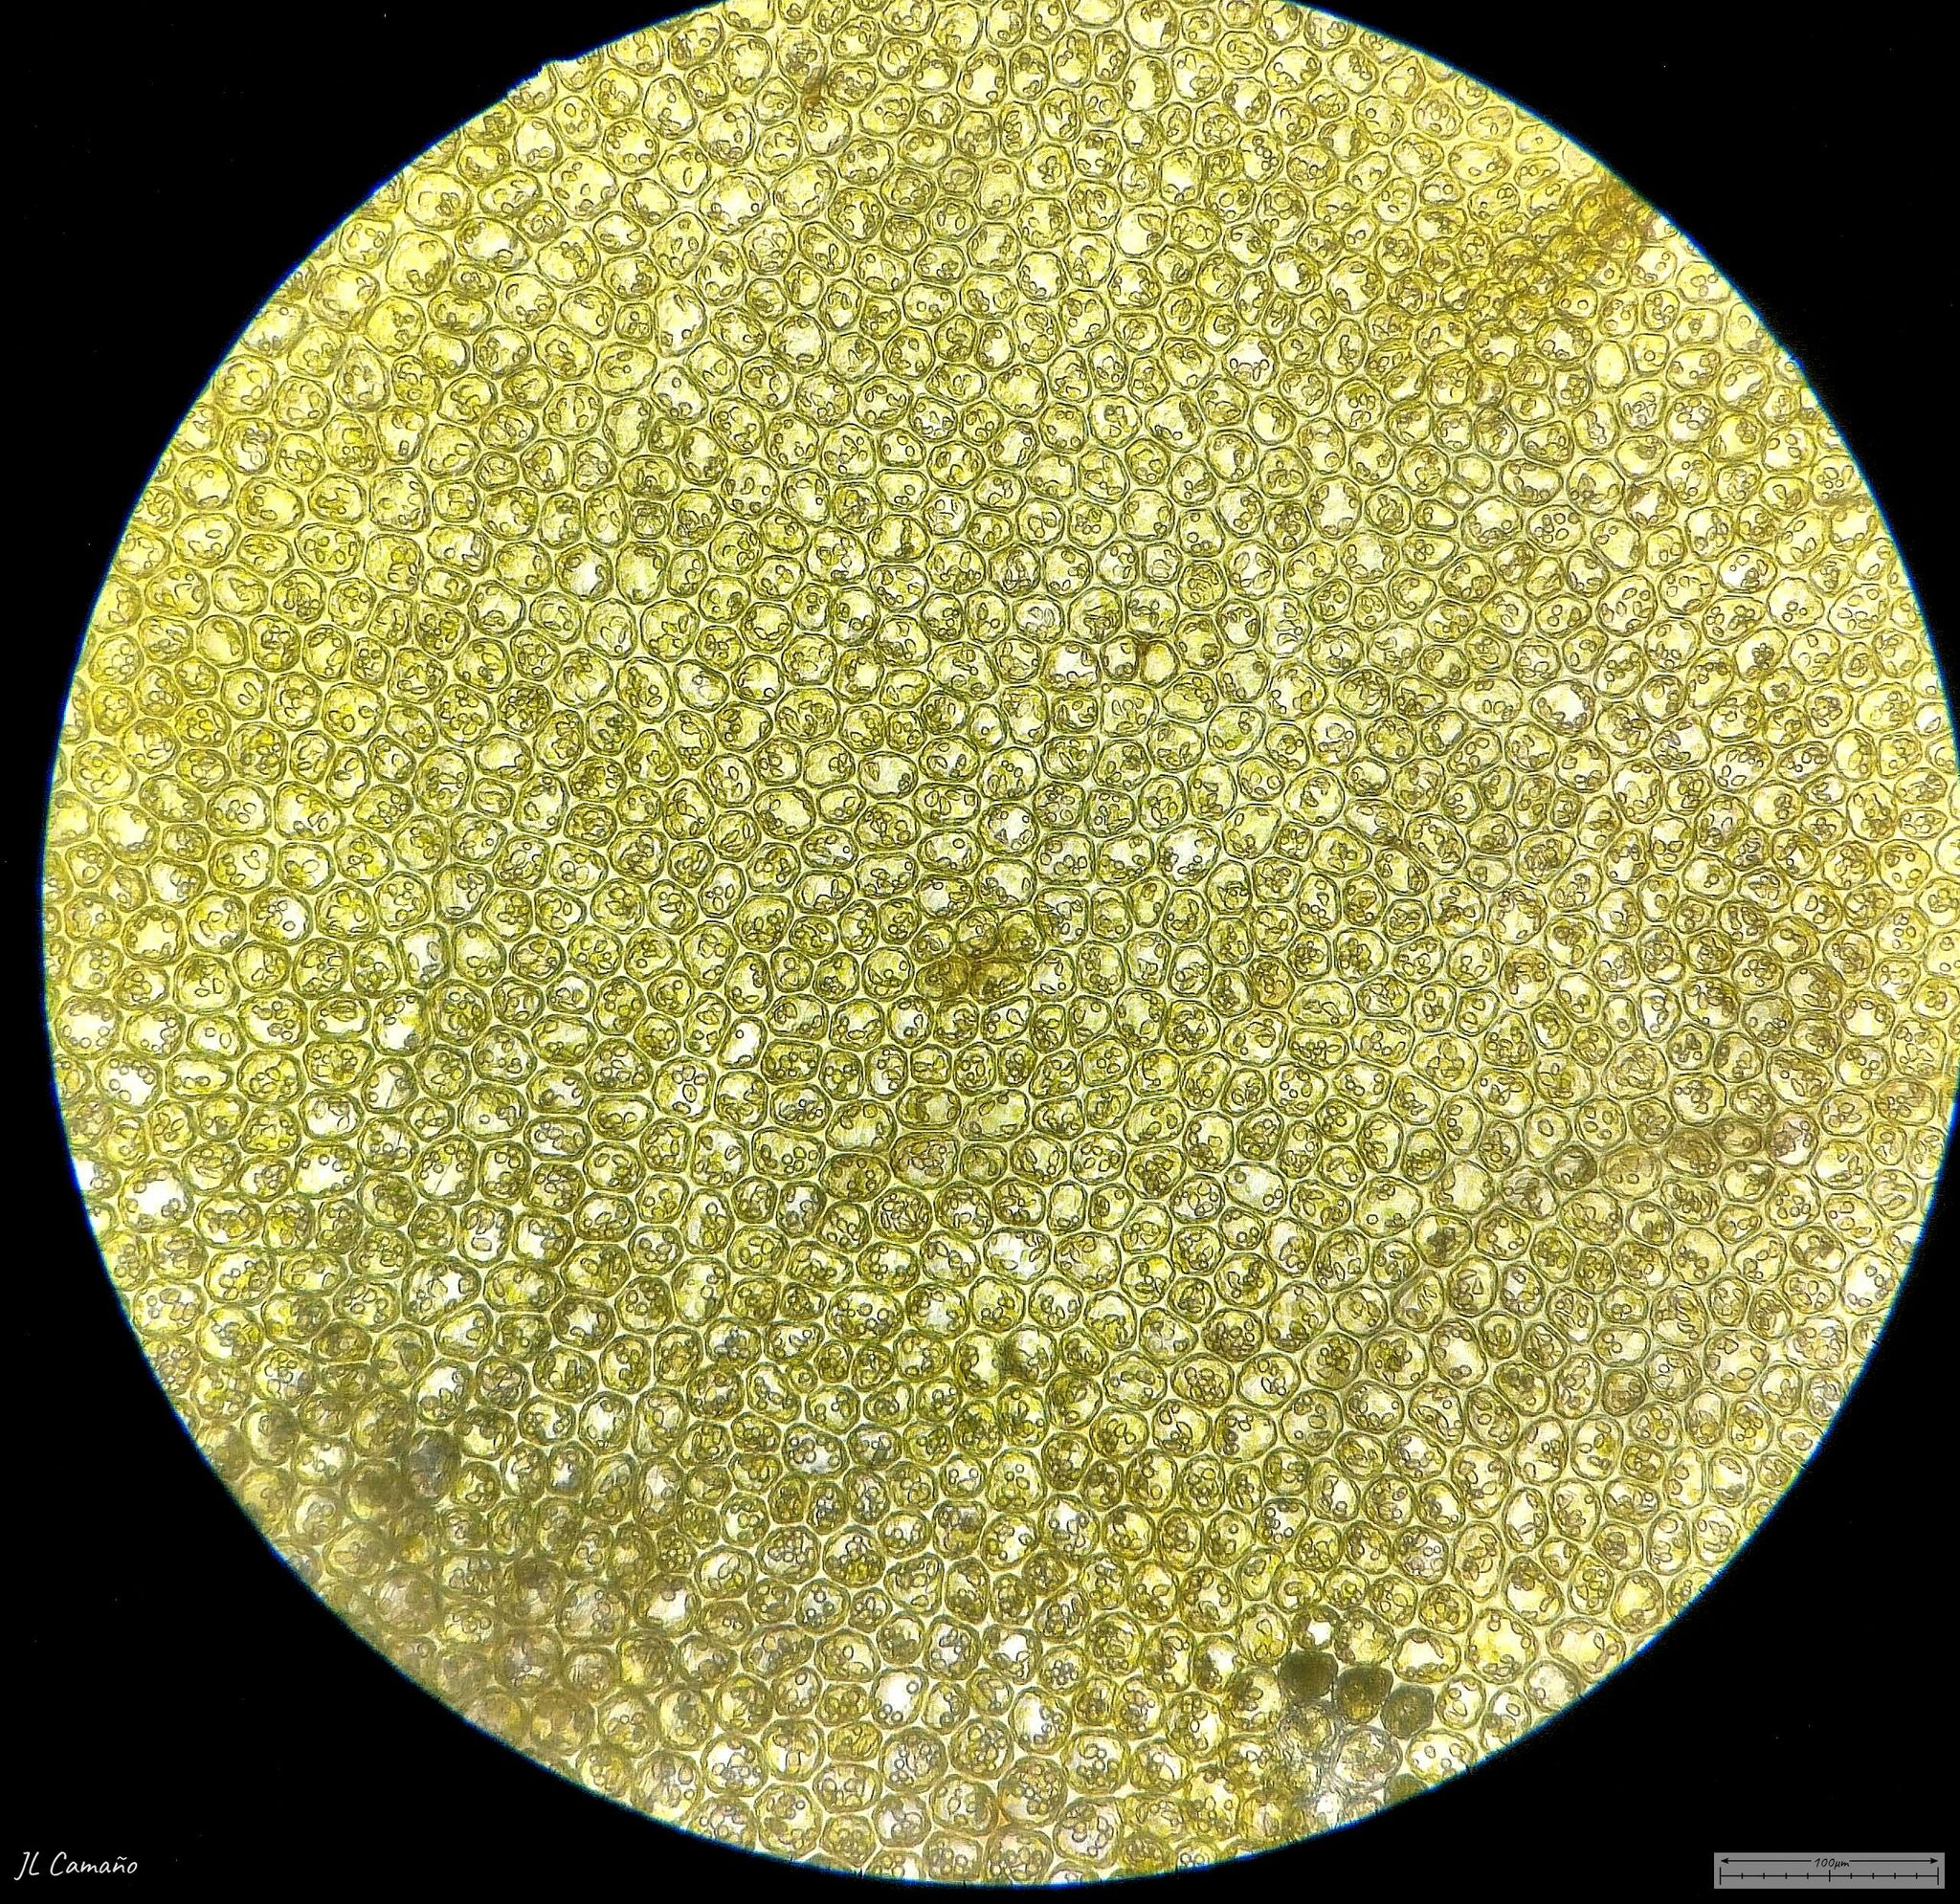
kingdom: Plantae
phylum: Marchantiophyta
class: Jungermanniopsida
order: Jungermanniales
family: Anastrophyllaceae
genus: Barbilophozia
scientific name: Barbilophozia barbata
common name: Bearded pawwort
